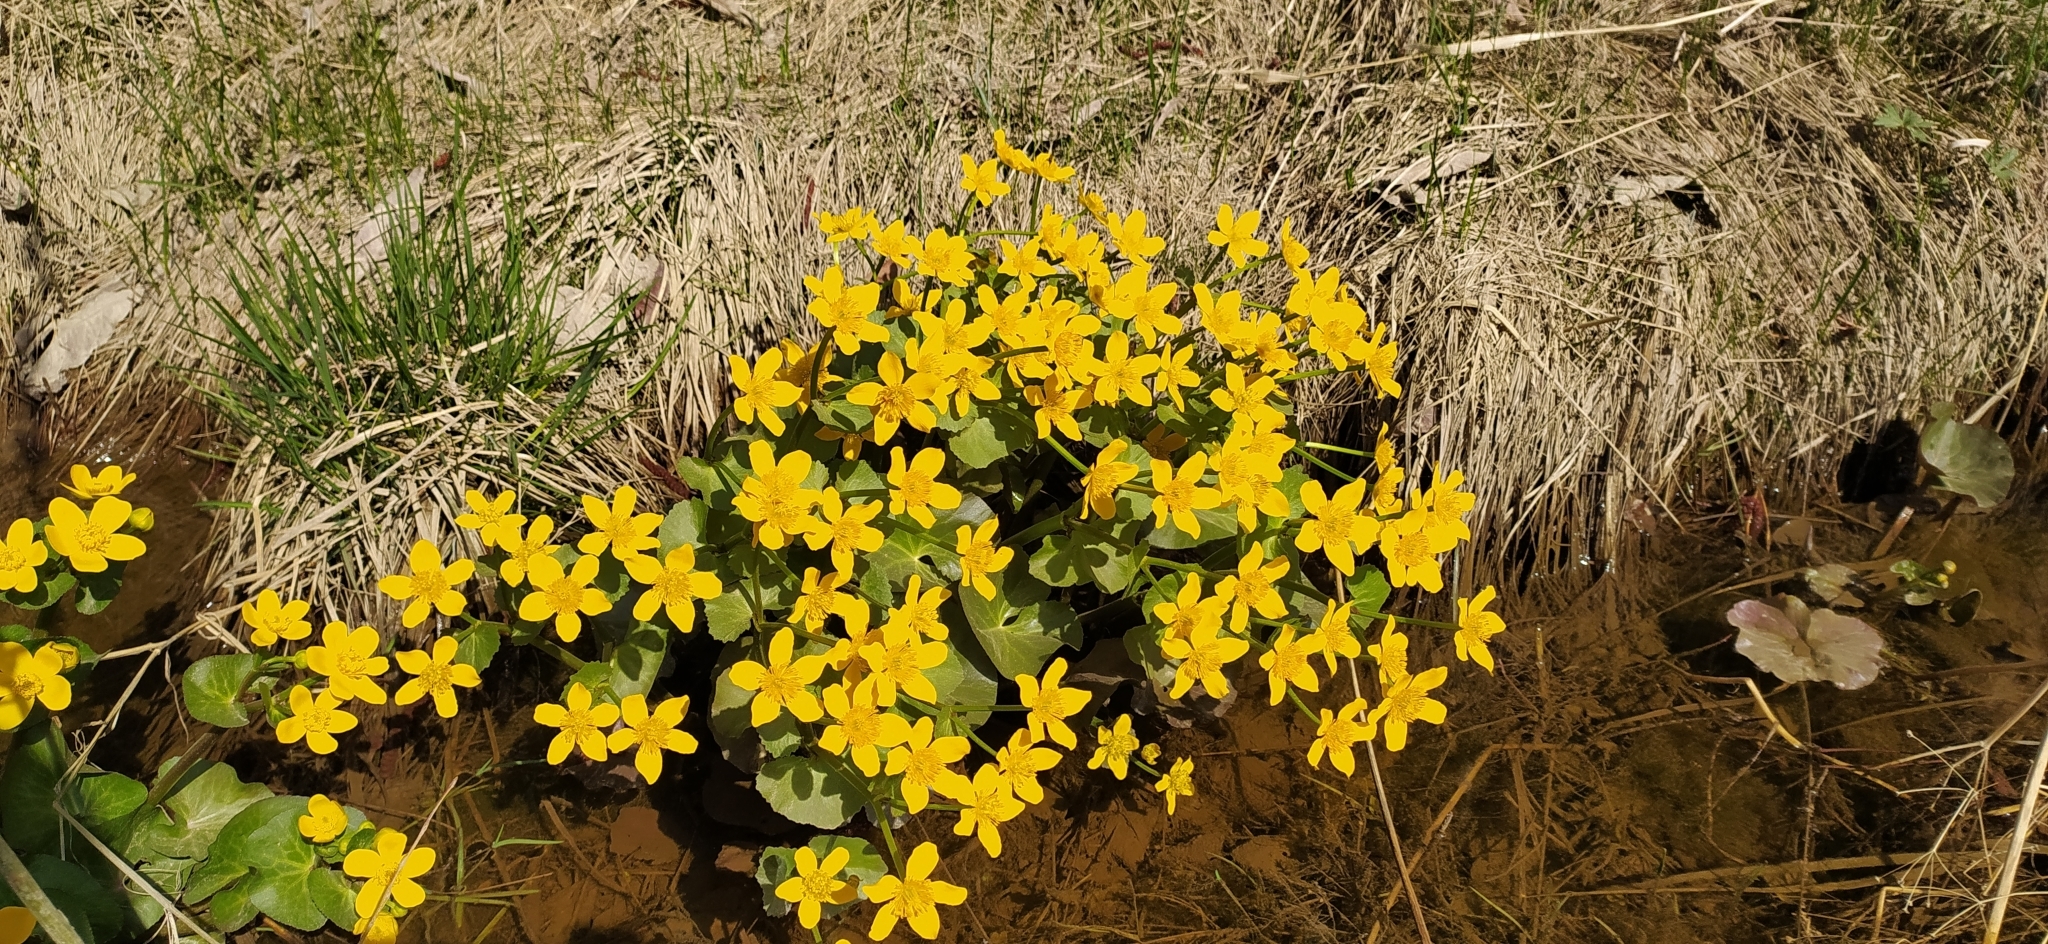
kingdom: Plantae
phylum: Tracheophyta
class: Magnoliopsida
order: Ranunculales
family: Ranunculaceae
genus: Caltha
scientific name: Caltha palustris
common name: Marsh marigold
